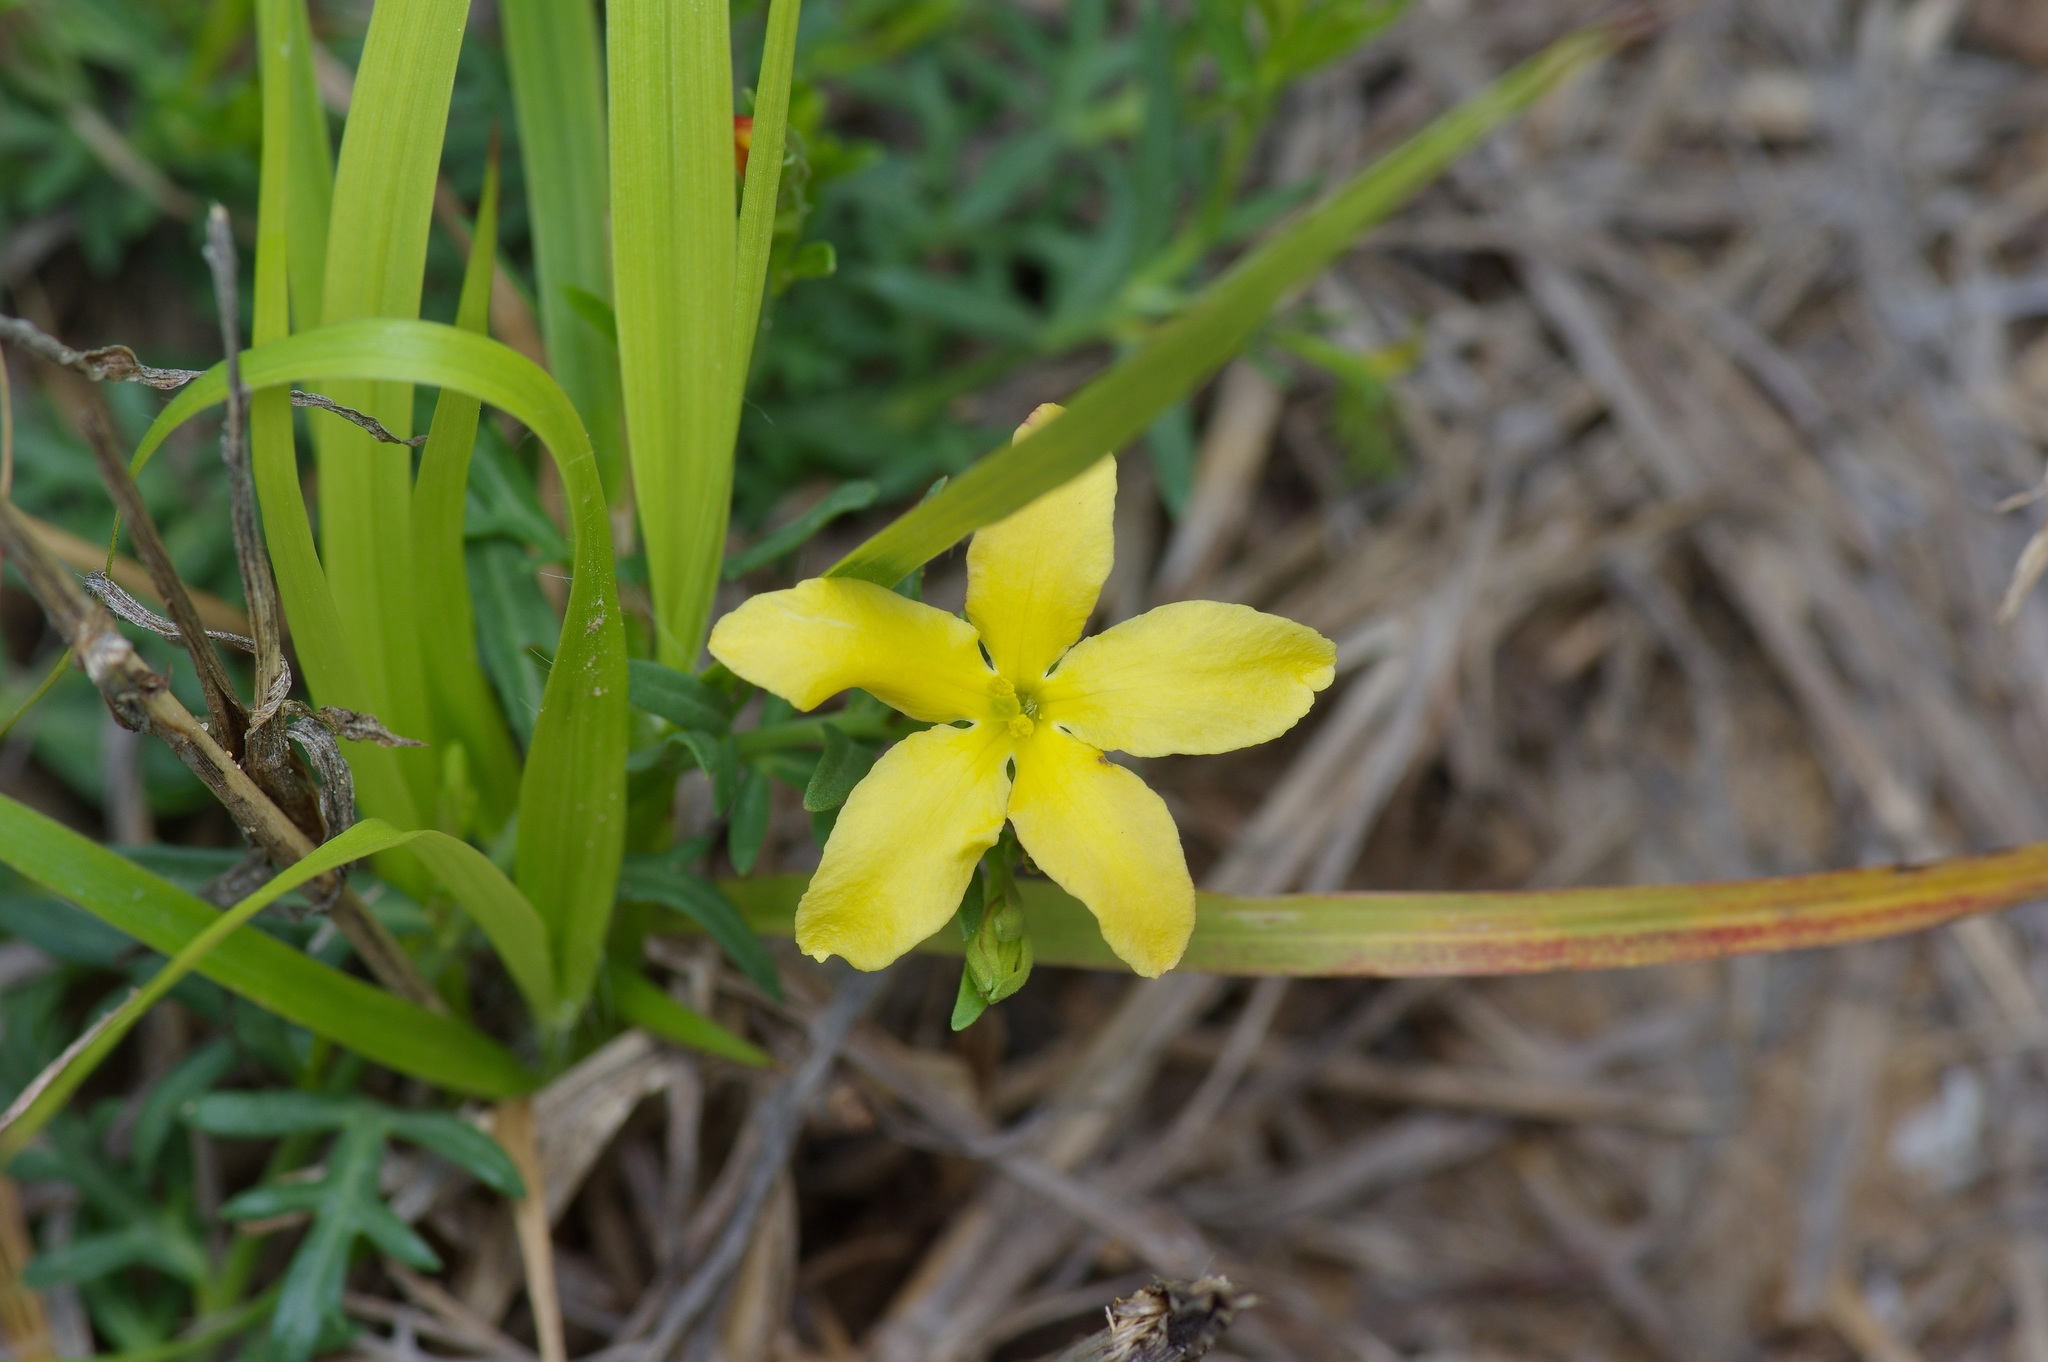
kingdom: Plantae
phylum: Tracheophyta
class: Magnoliopsida
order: Lamiales
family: Oleaceae
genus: Menodora
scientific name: Menodora heterophylla
